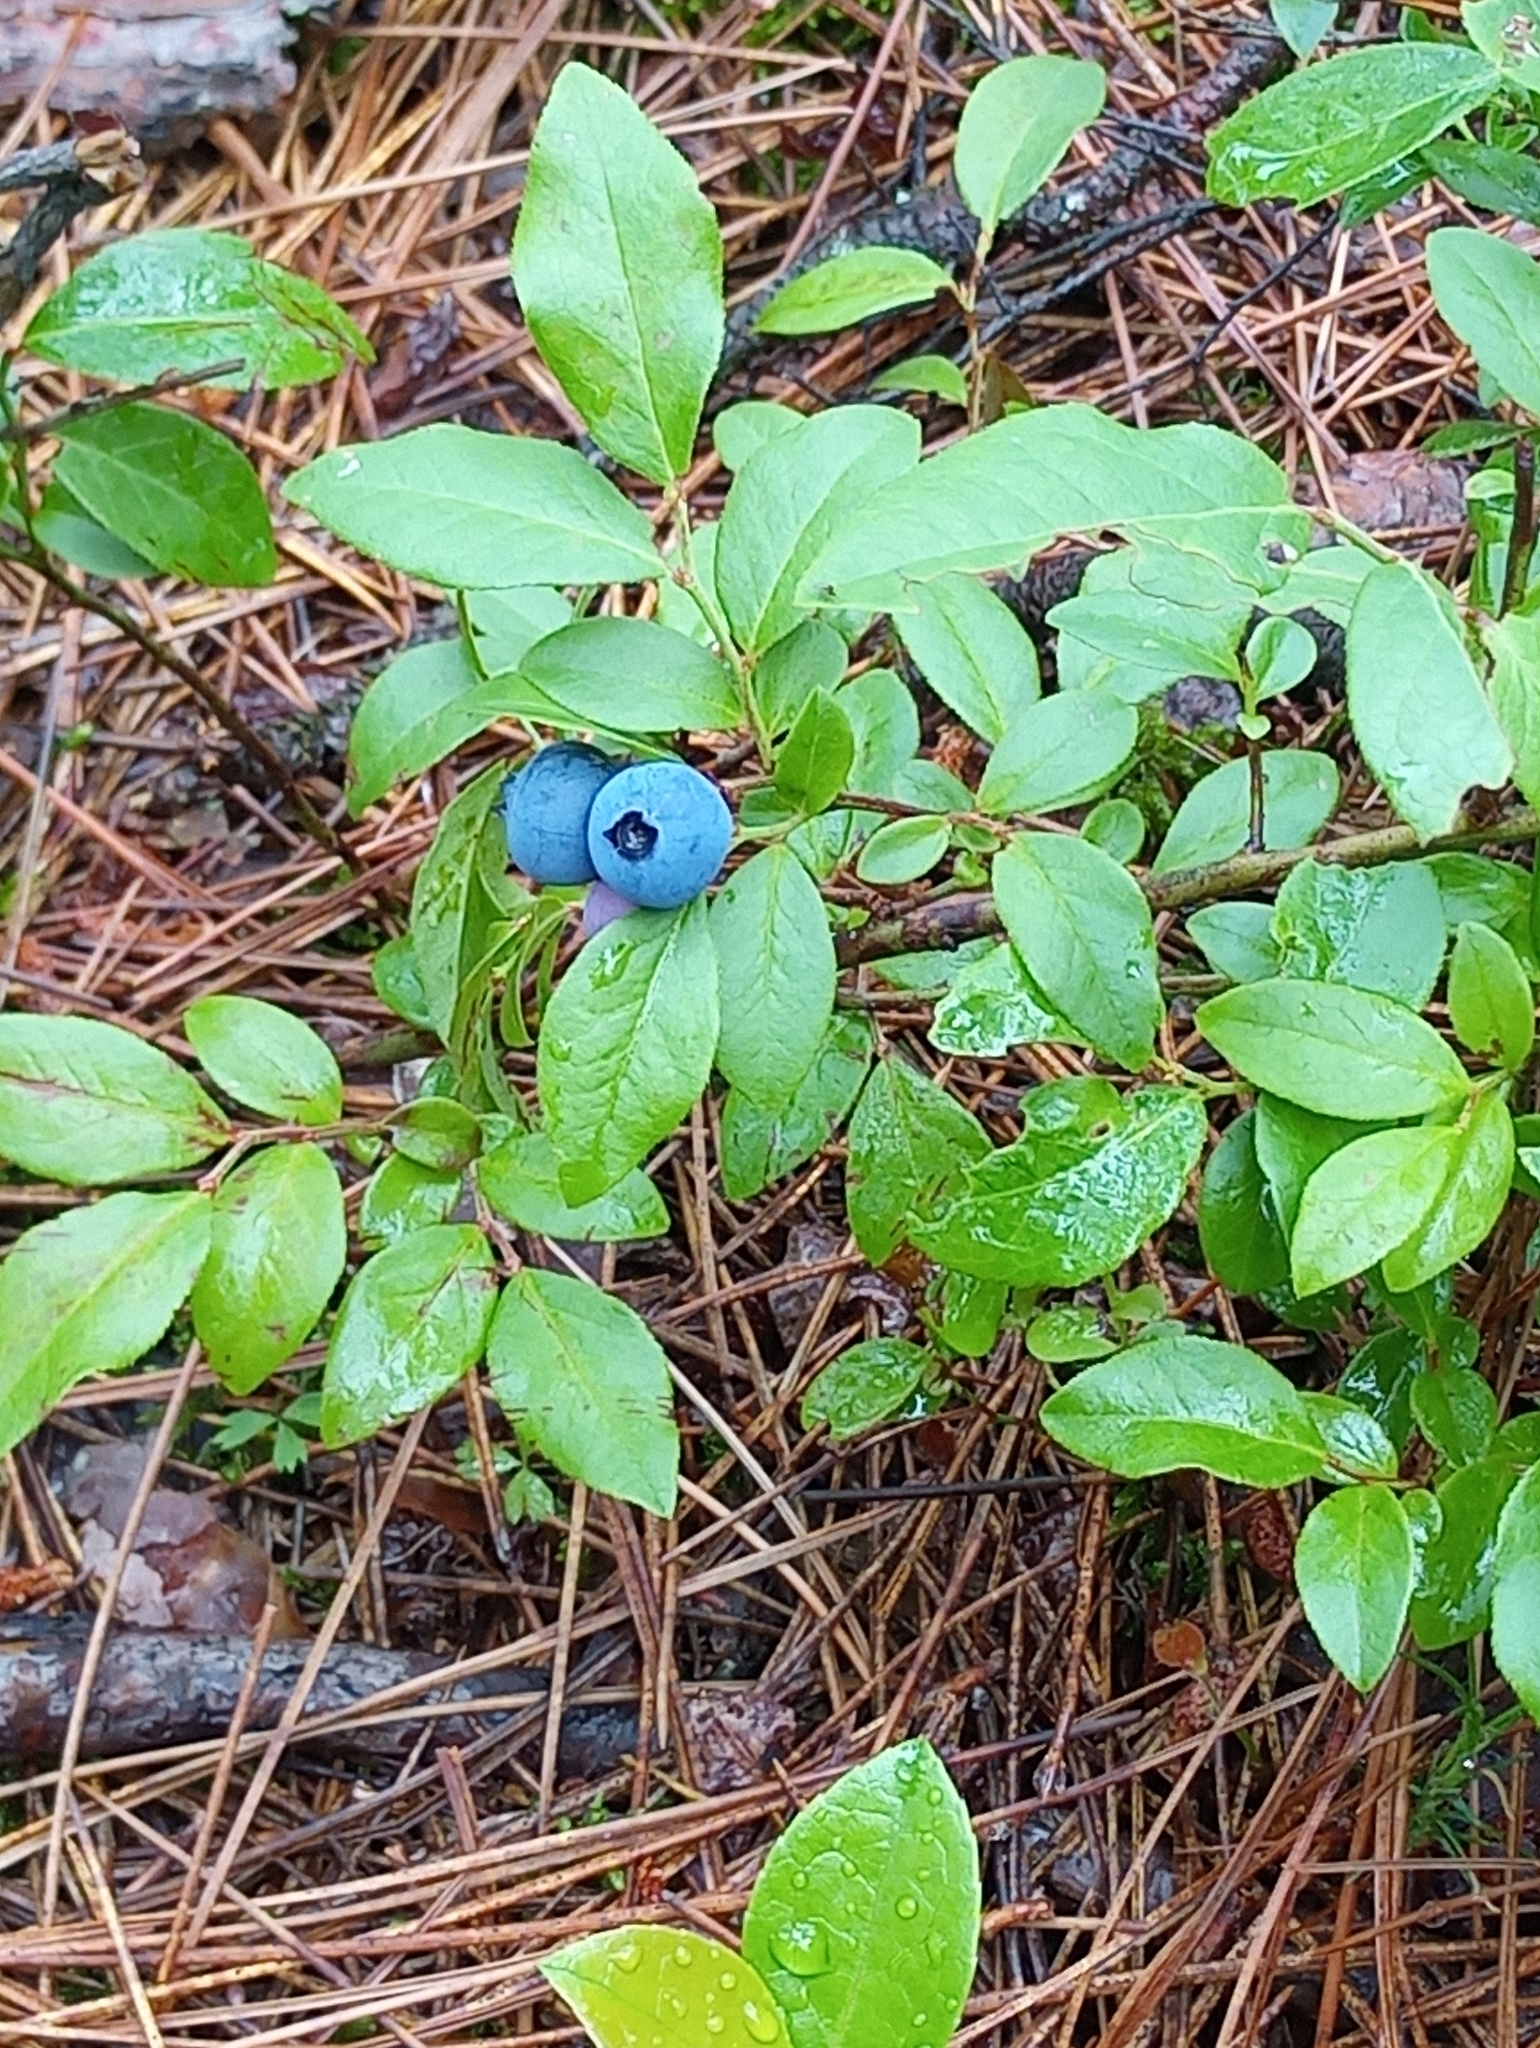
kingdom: Plantae
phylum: Tracheophyta
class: Magnoliopsida
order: Ericales
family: Ericaceae
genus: Vaccinium
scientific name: Vaccinium angustifolium
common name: Early lowbush blueberry
